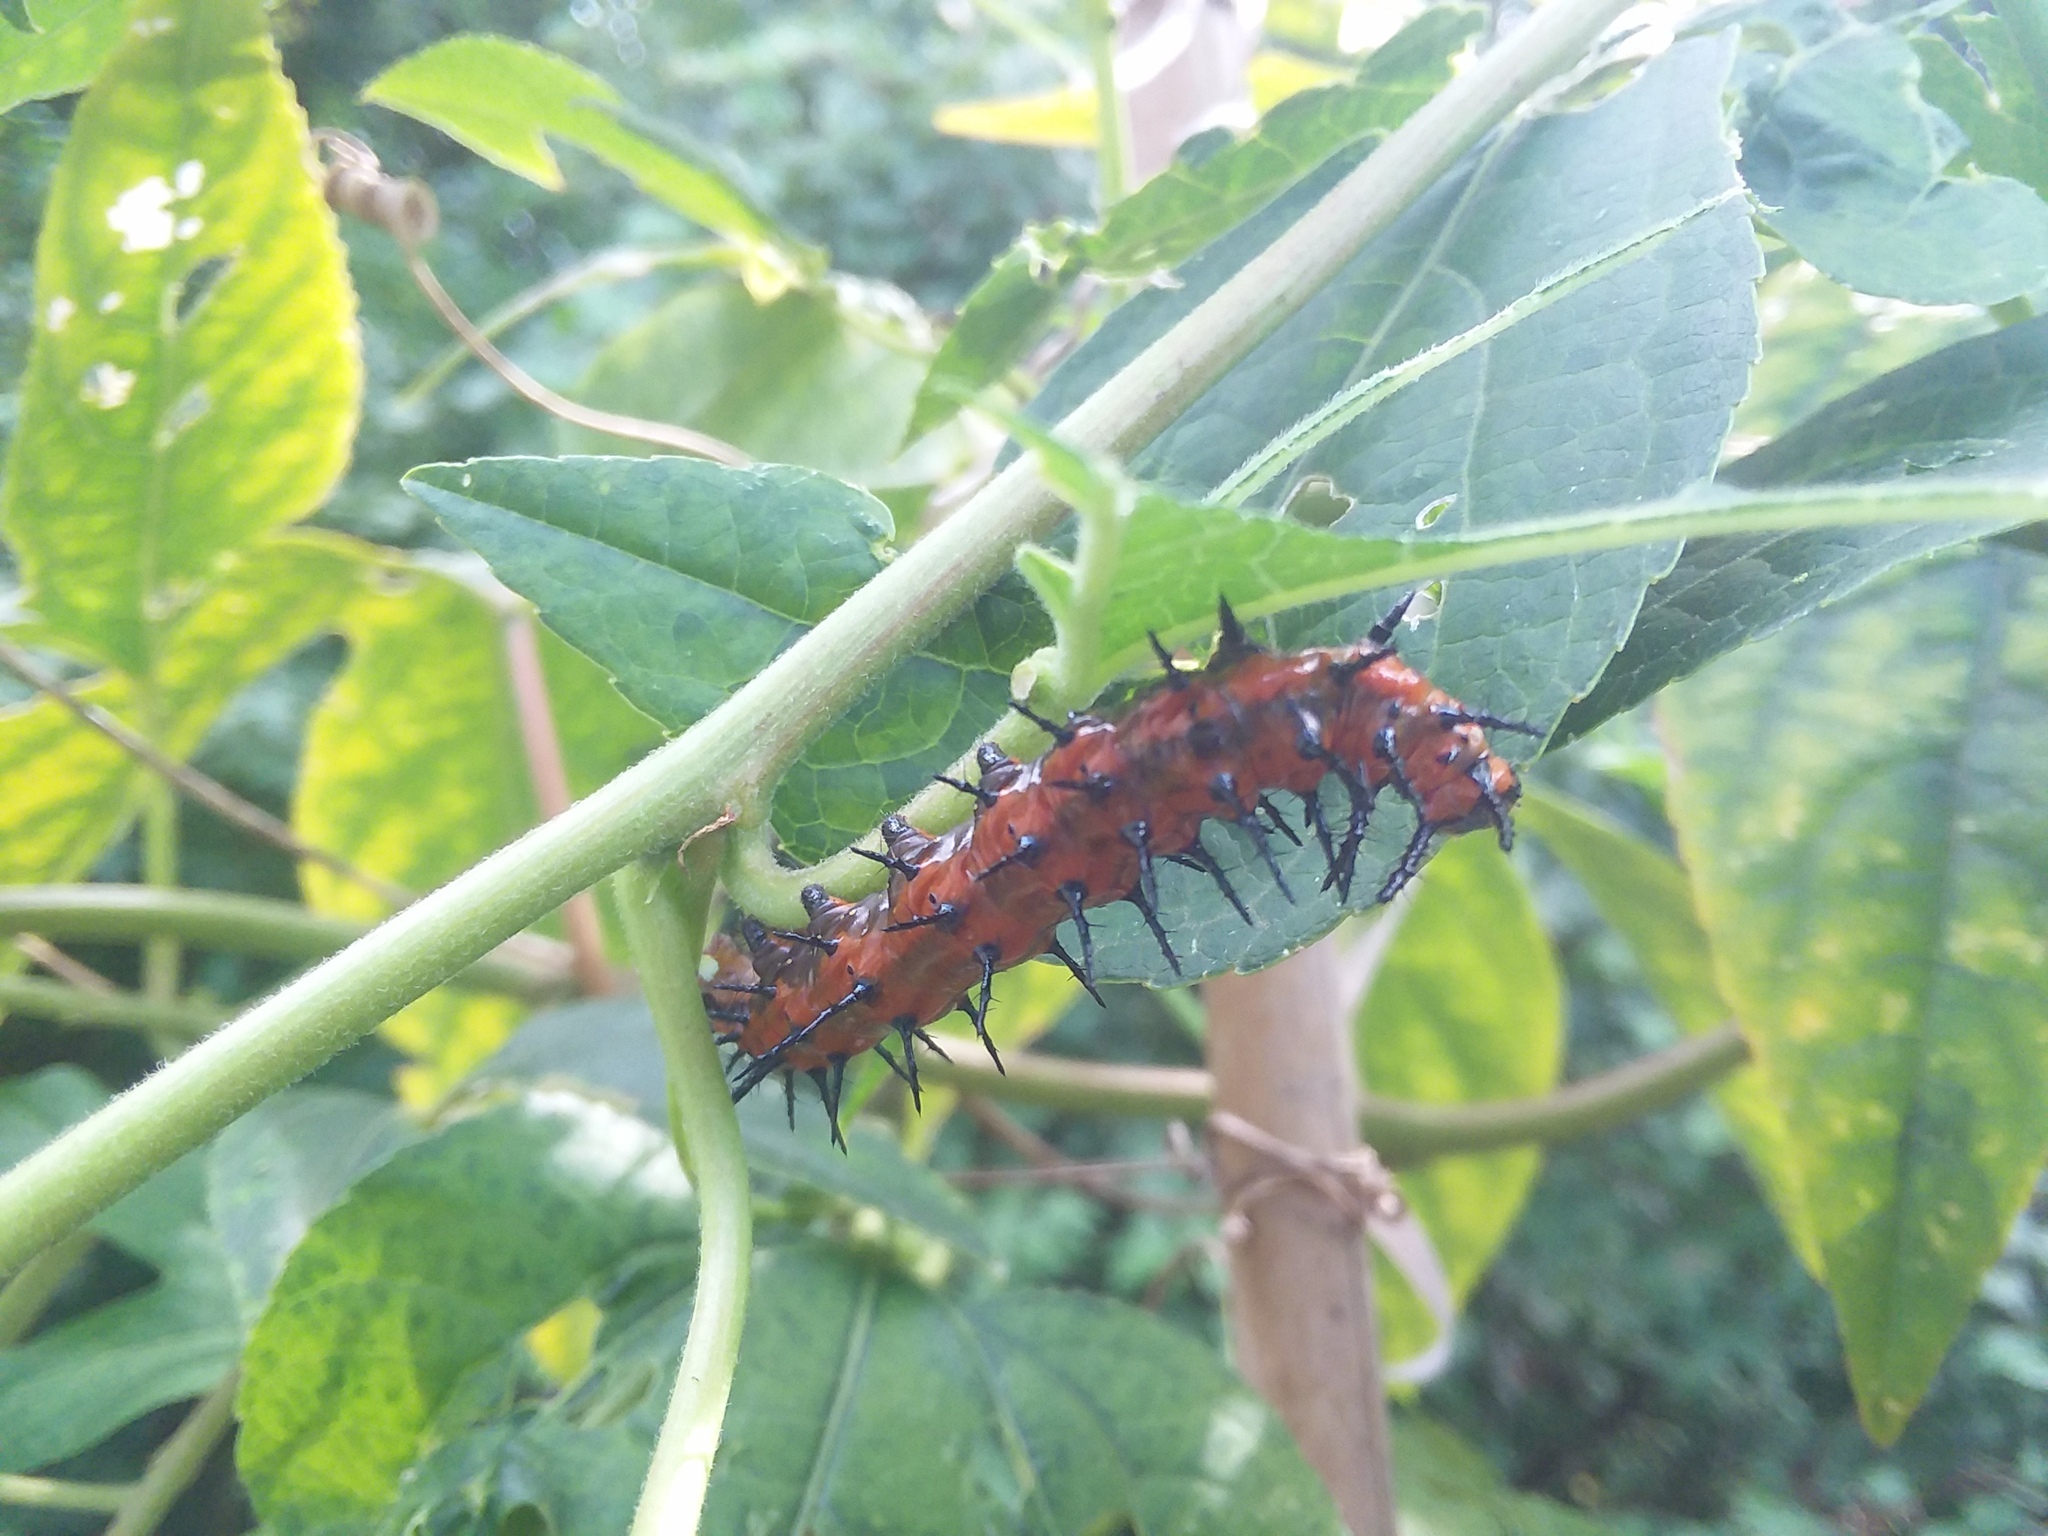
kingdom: Animalia
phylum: Arthropoda
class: Insecta
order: Lepidoptera
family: Nymphalidae
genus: Dione
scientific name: Dione vanillae
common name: Gulf fritillary
